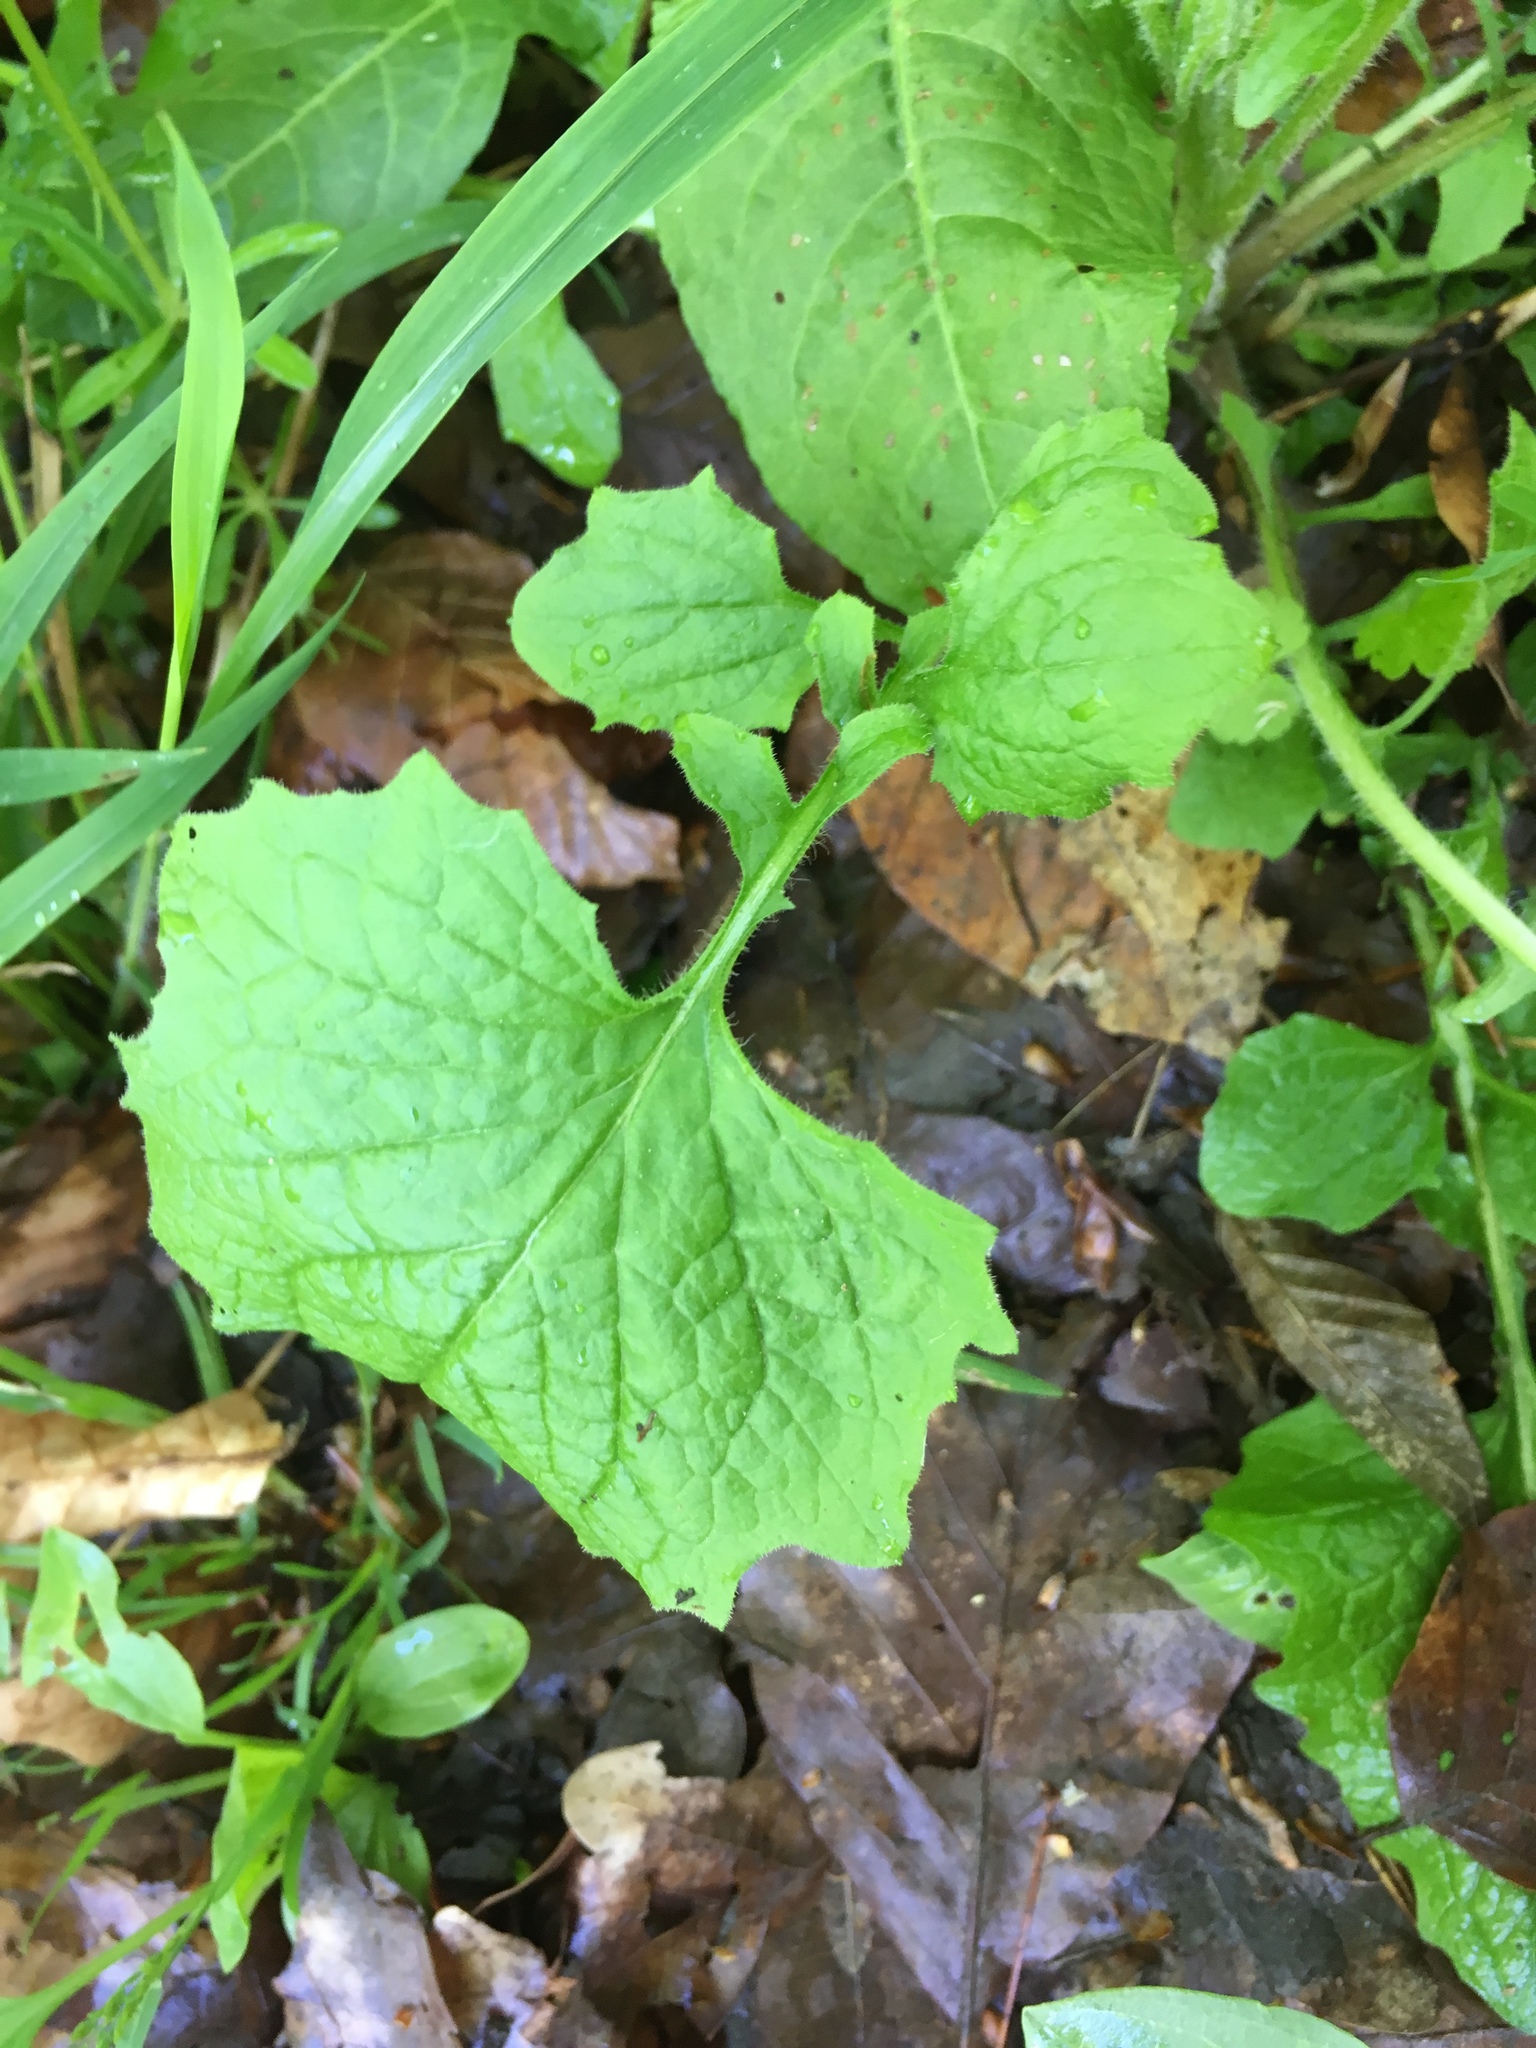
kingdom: Plantae
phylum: Tracheophyta
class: Magnoliopsida
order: Asterales
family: Asteraceae
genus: Lapsana
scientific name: Lapsana communis
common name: Nipplewort
